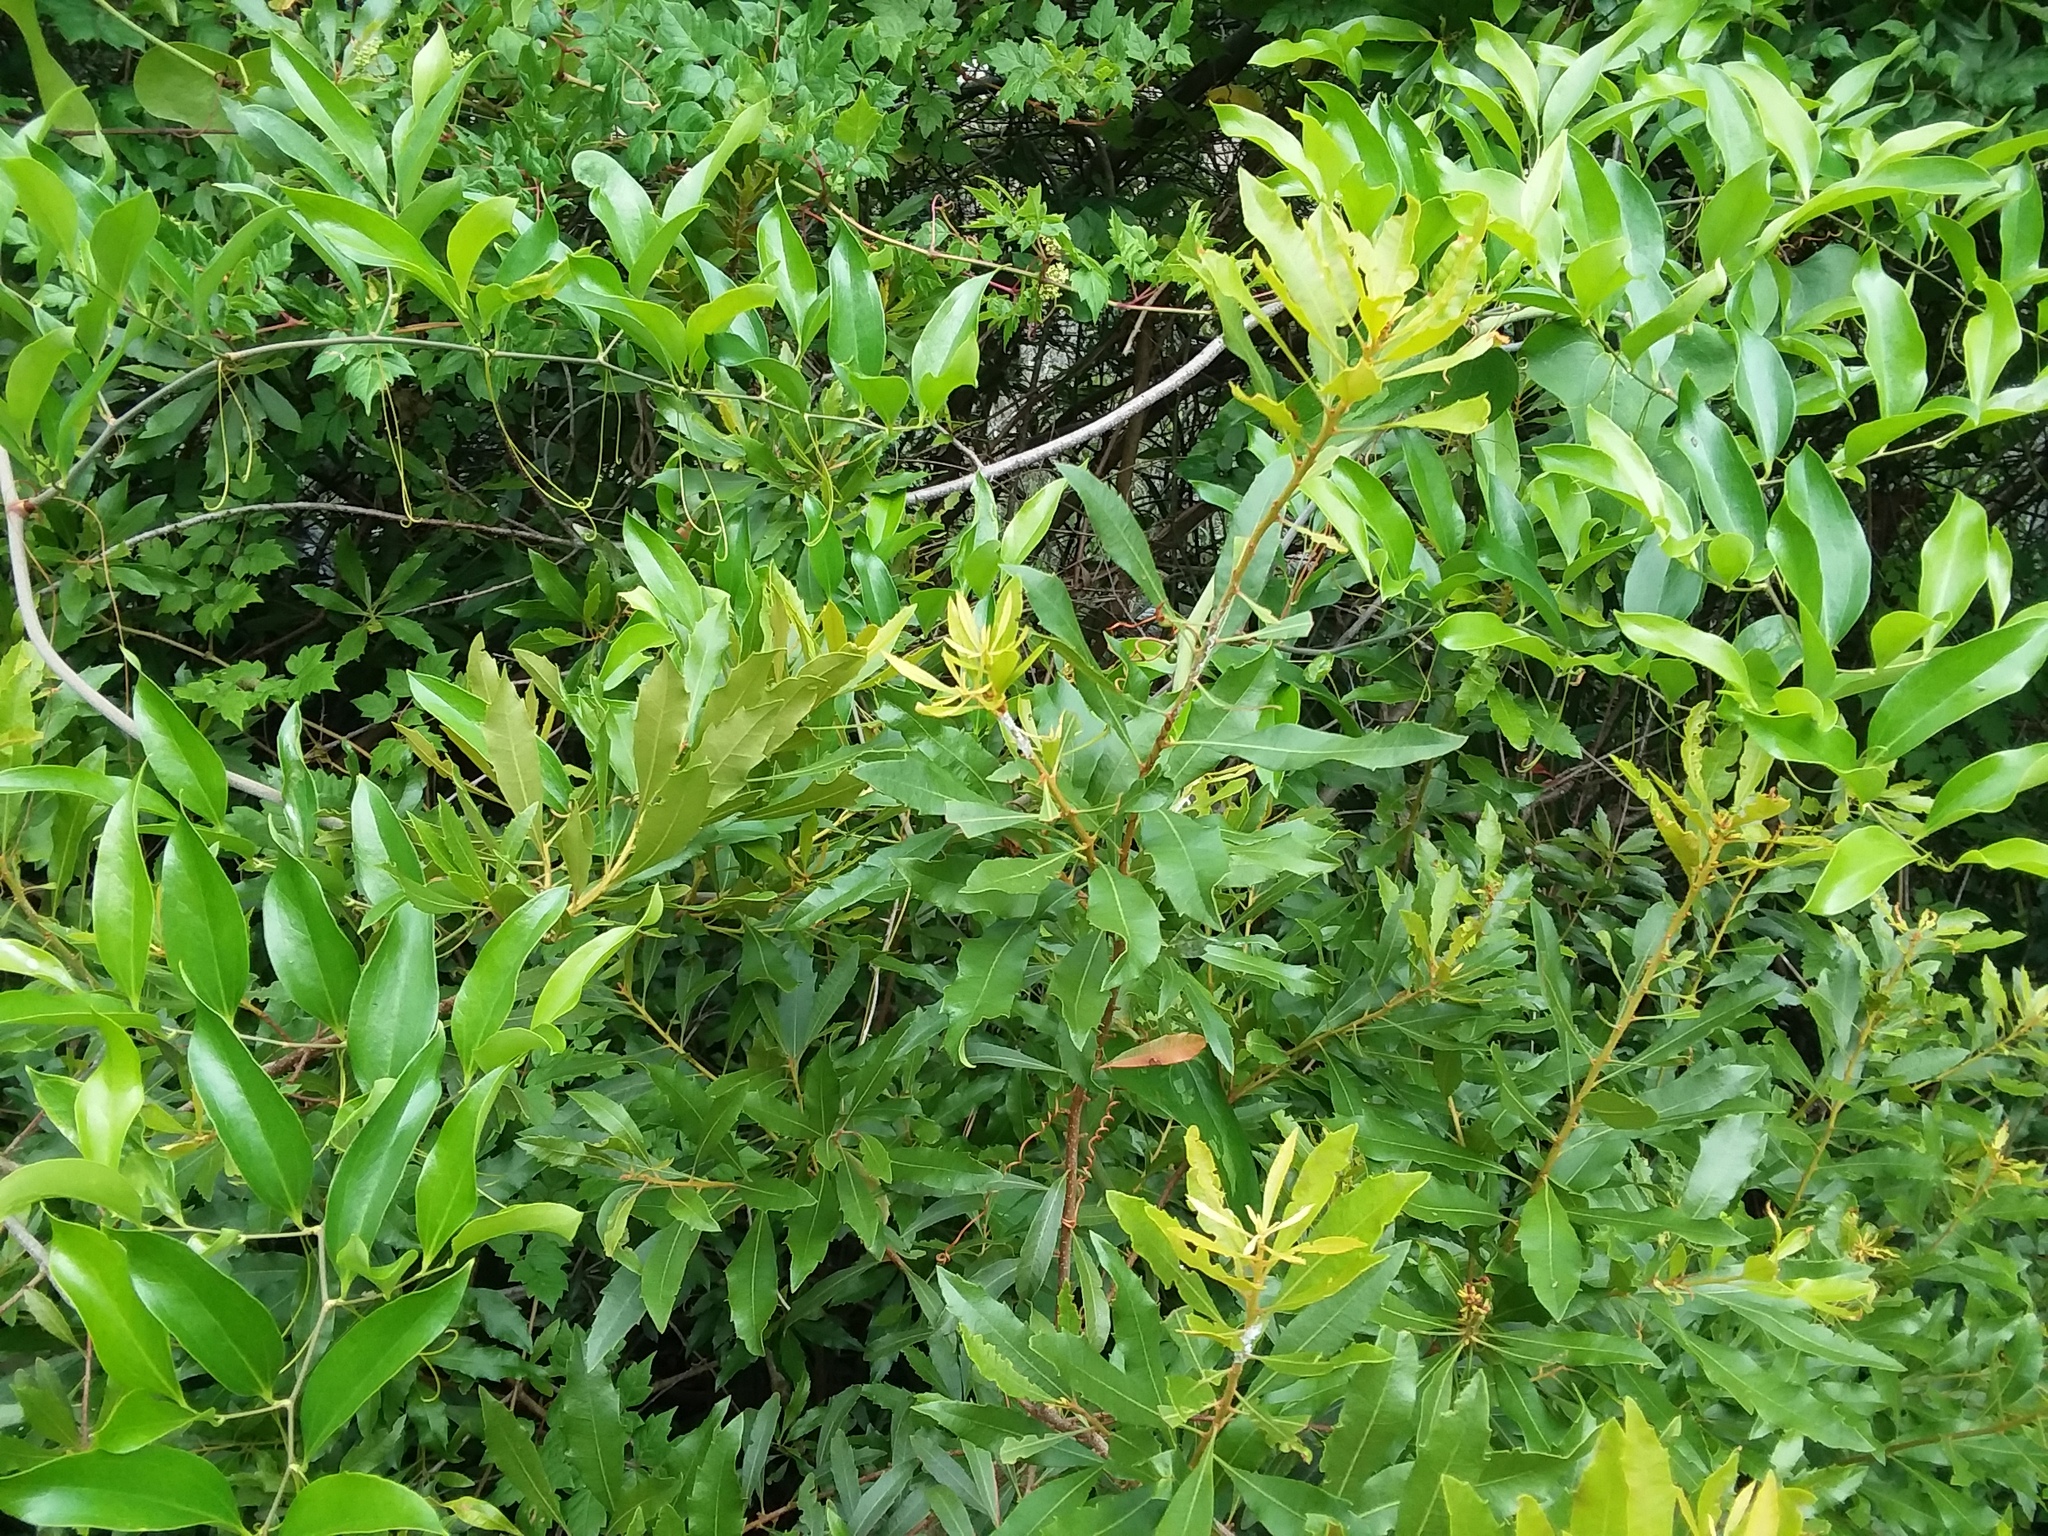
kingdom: Plantae
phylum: Tracheophyta
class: Magnoliopsida
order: Fagales
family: Myricaceae
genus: Morella
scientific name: Morella cerifera
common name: Wax myrtle
